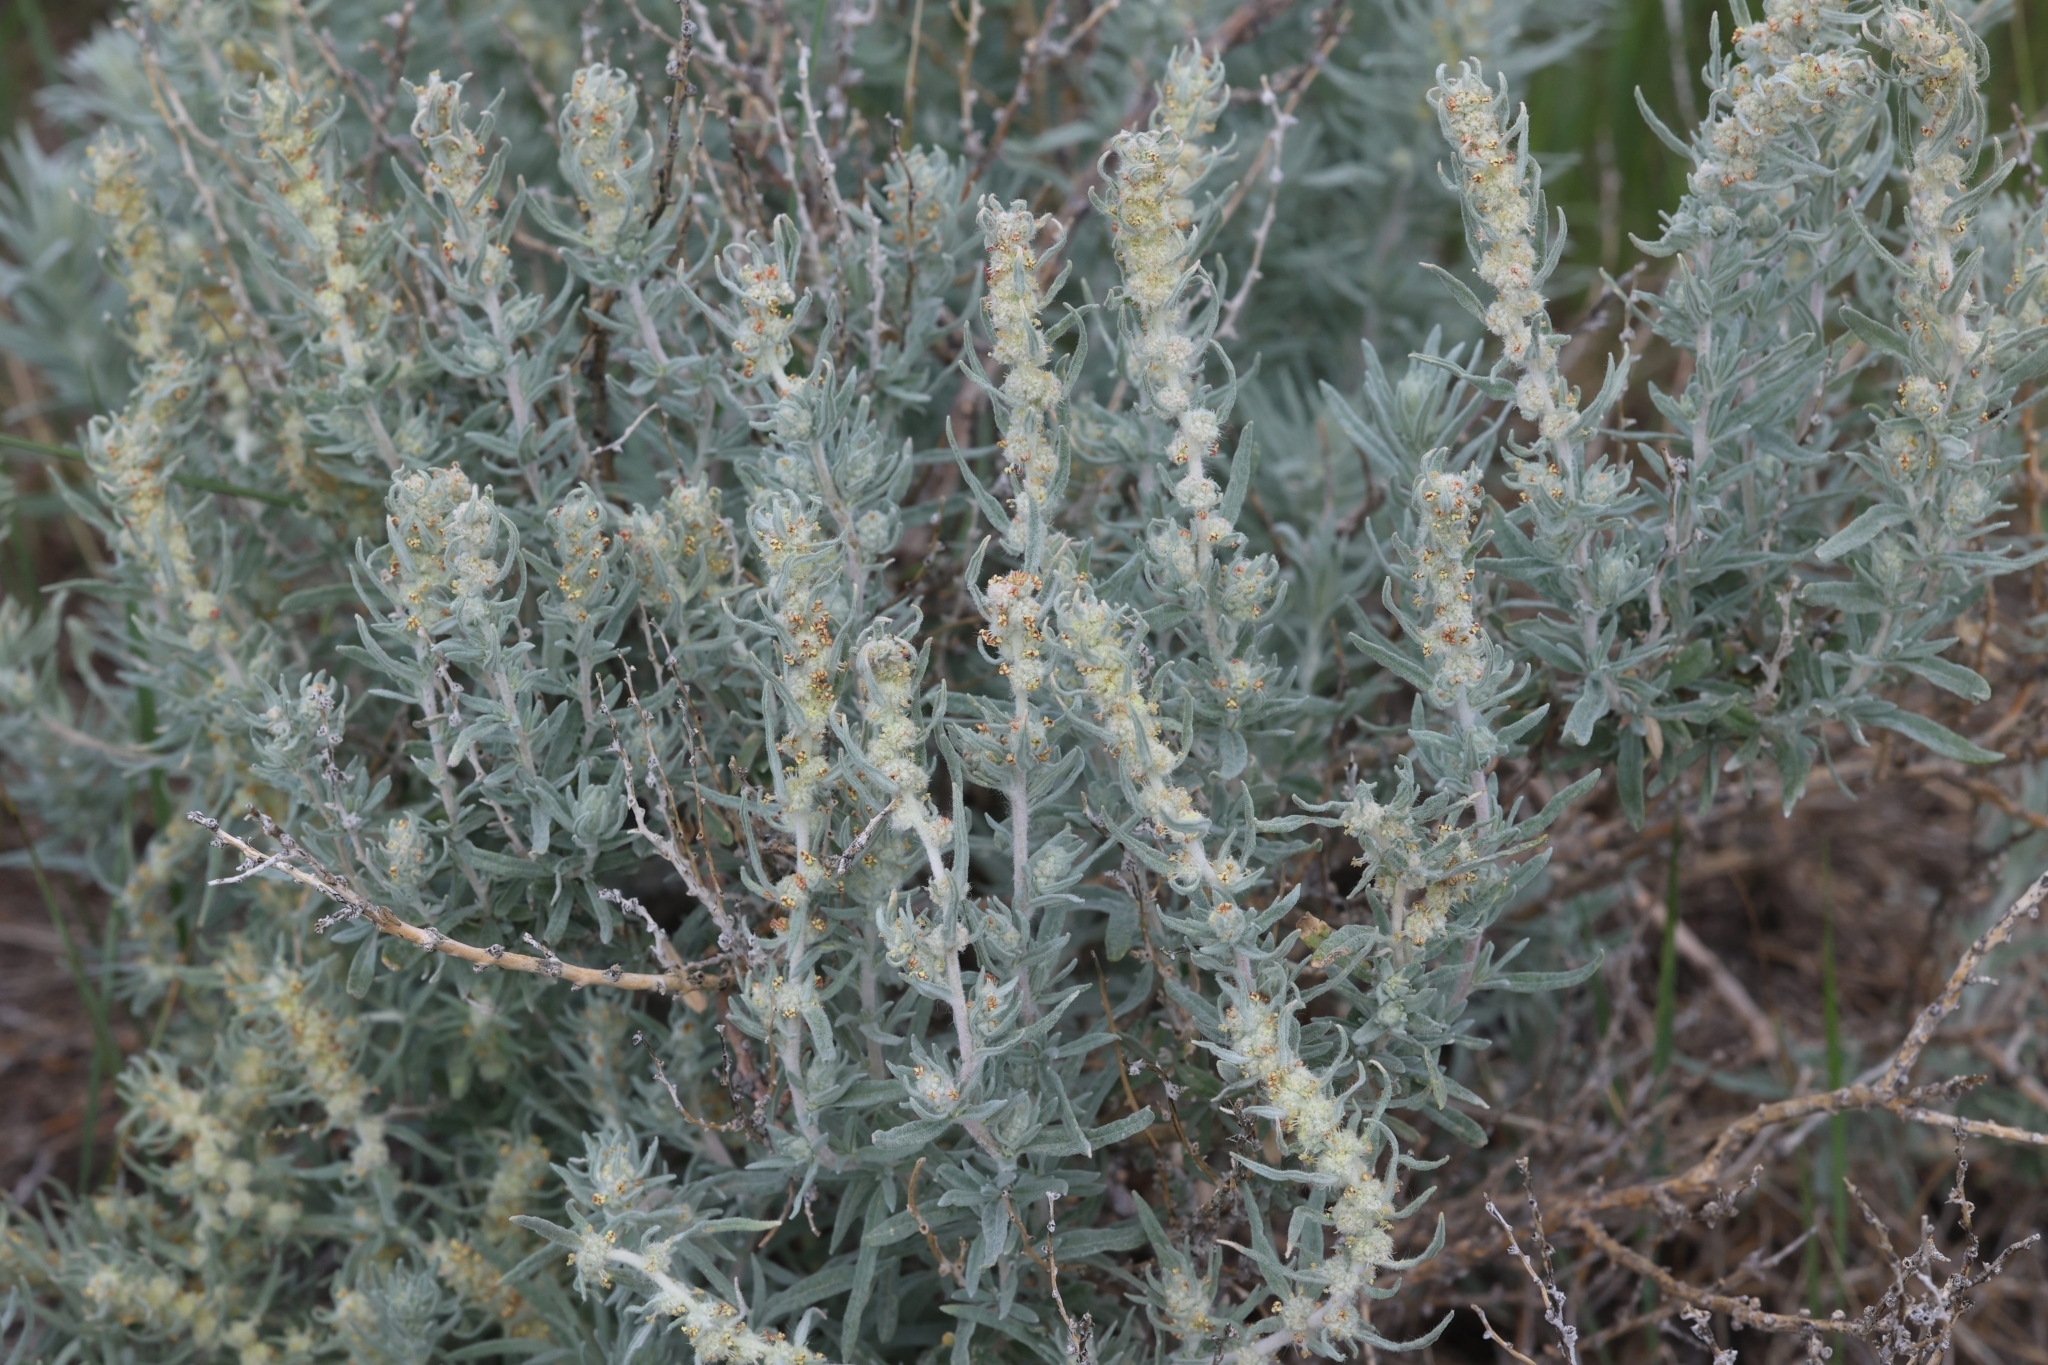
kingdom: Plantae
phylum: Tracheophyta
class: Magnoliopsida
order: Caryophyllales
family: Amaranthaceae
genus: Krascheninnikovia
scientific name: Krascheninnikovia lanata
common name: Winterfat
